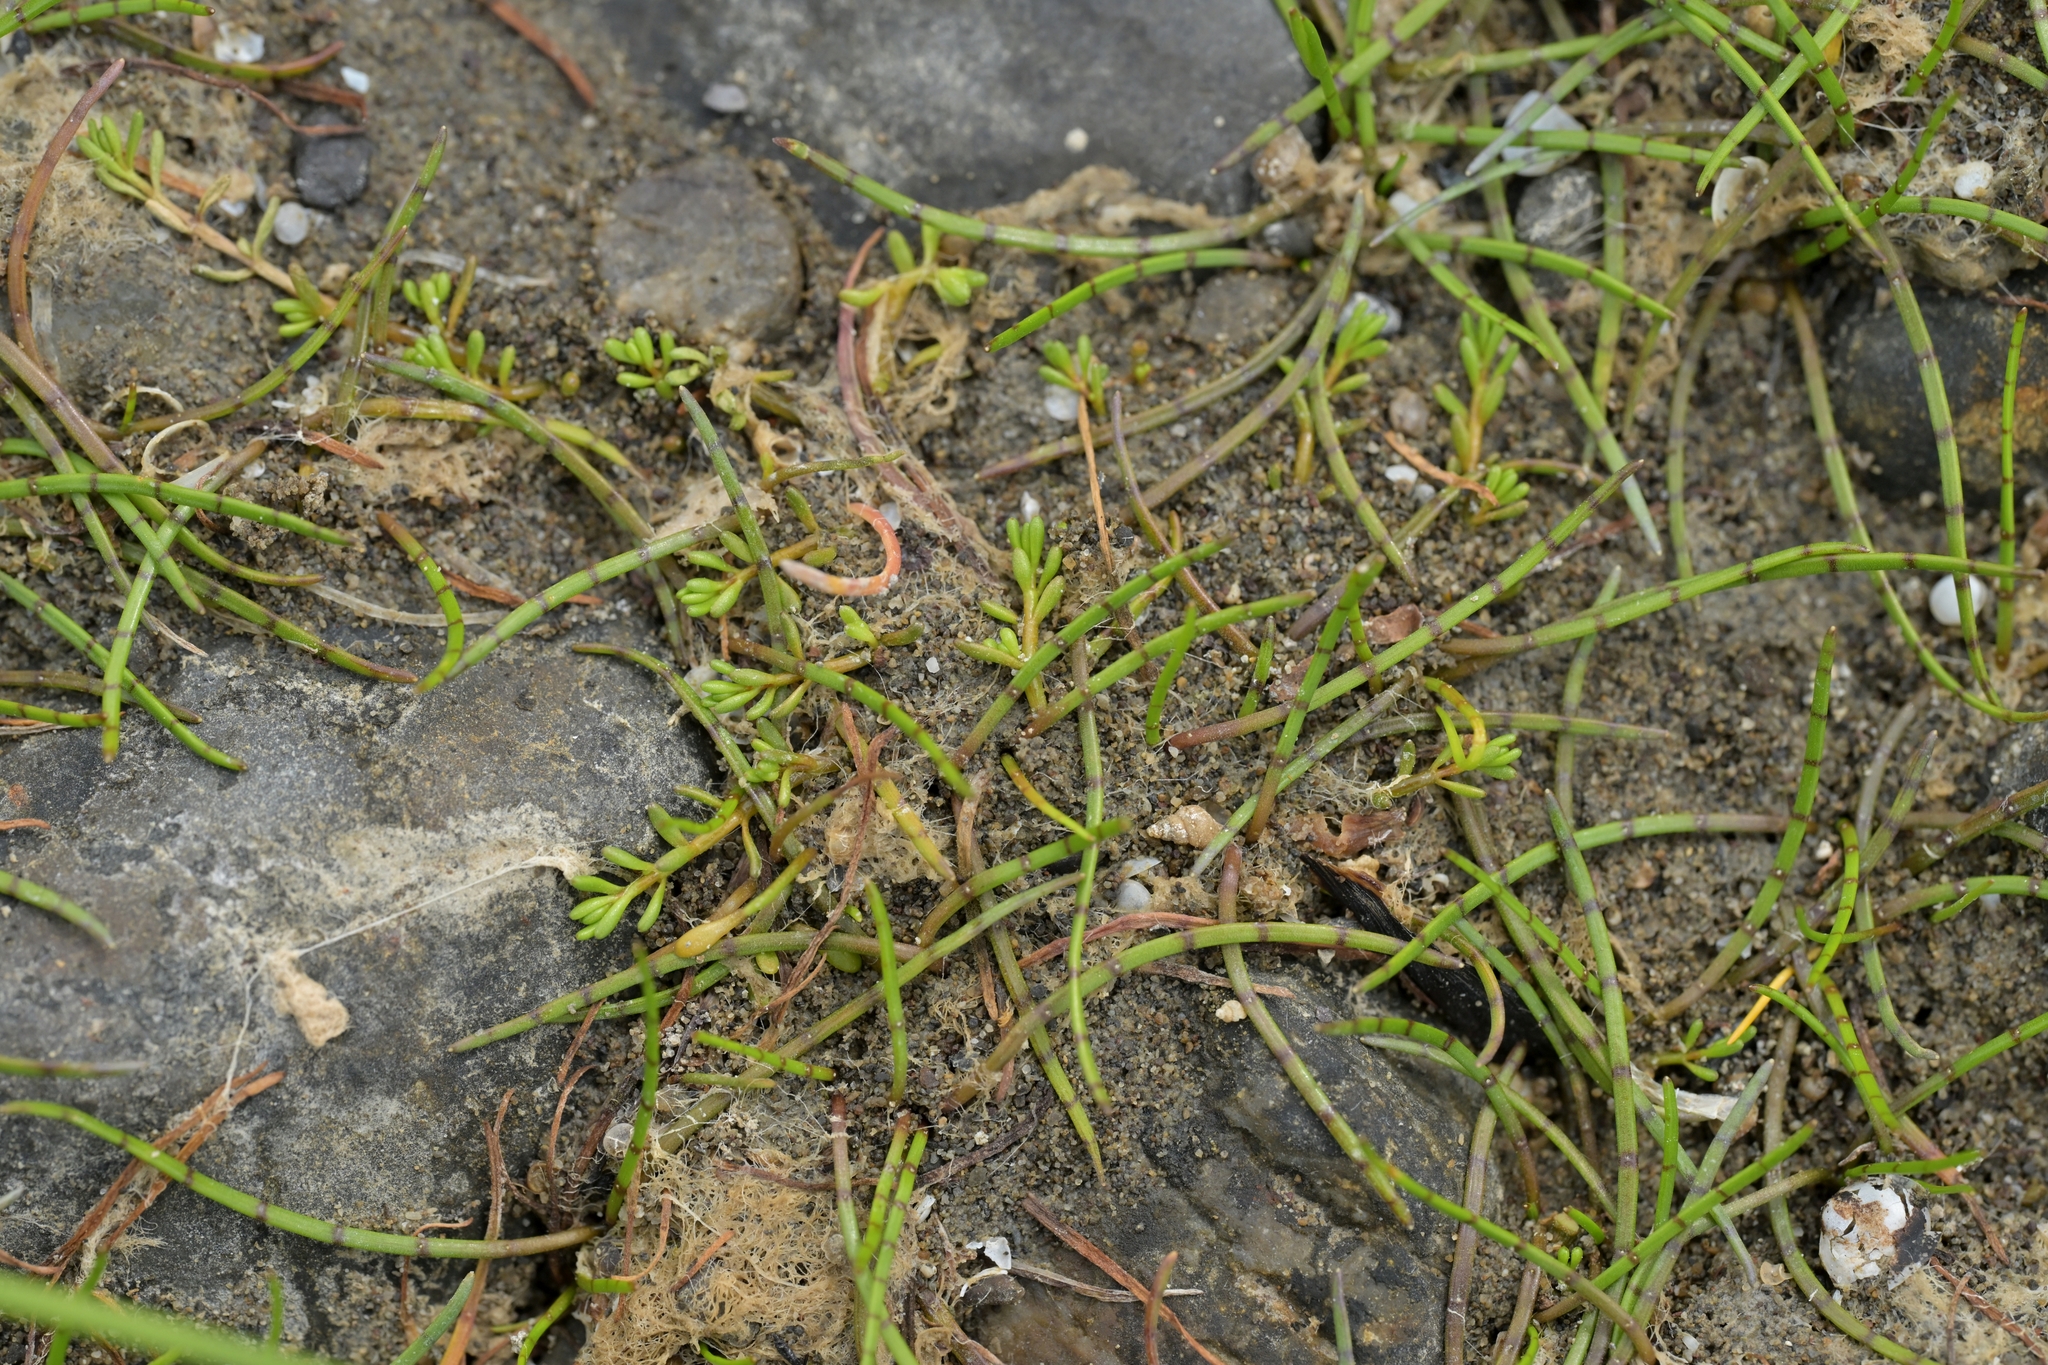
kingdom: Plantae
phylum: Tracheophyta
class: Magnoliopsida
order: Apiales
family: Apiaceae
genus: Lilaeopsis
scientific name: Lilaeopsis novae-zelandiae
